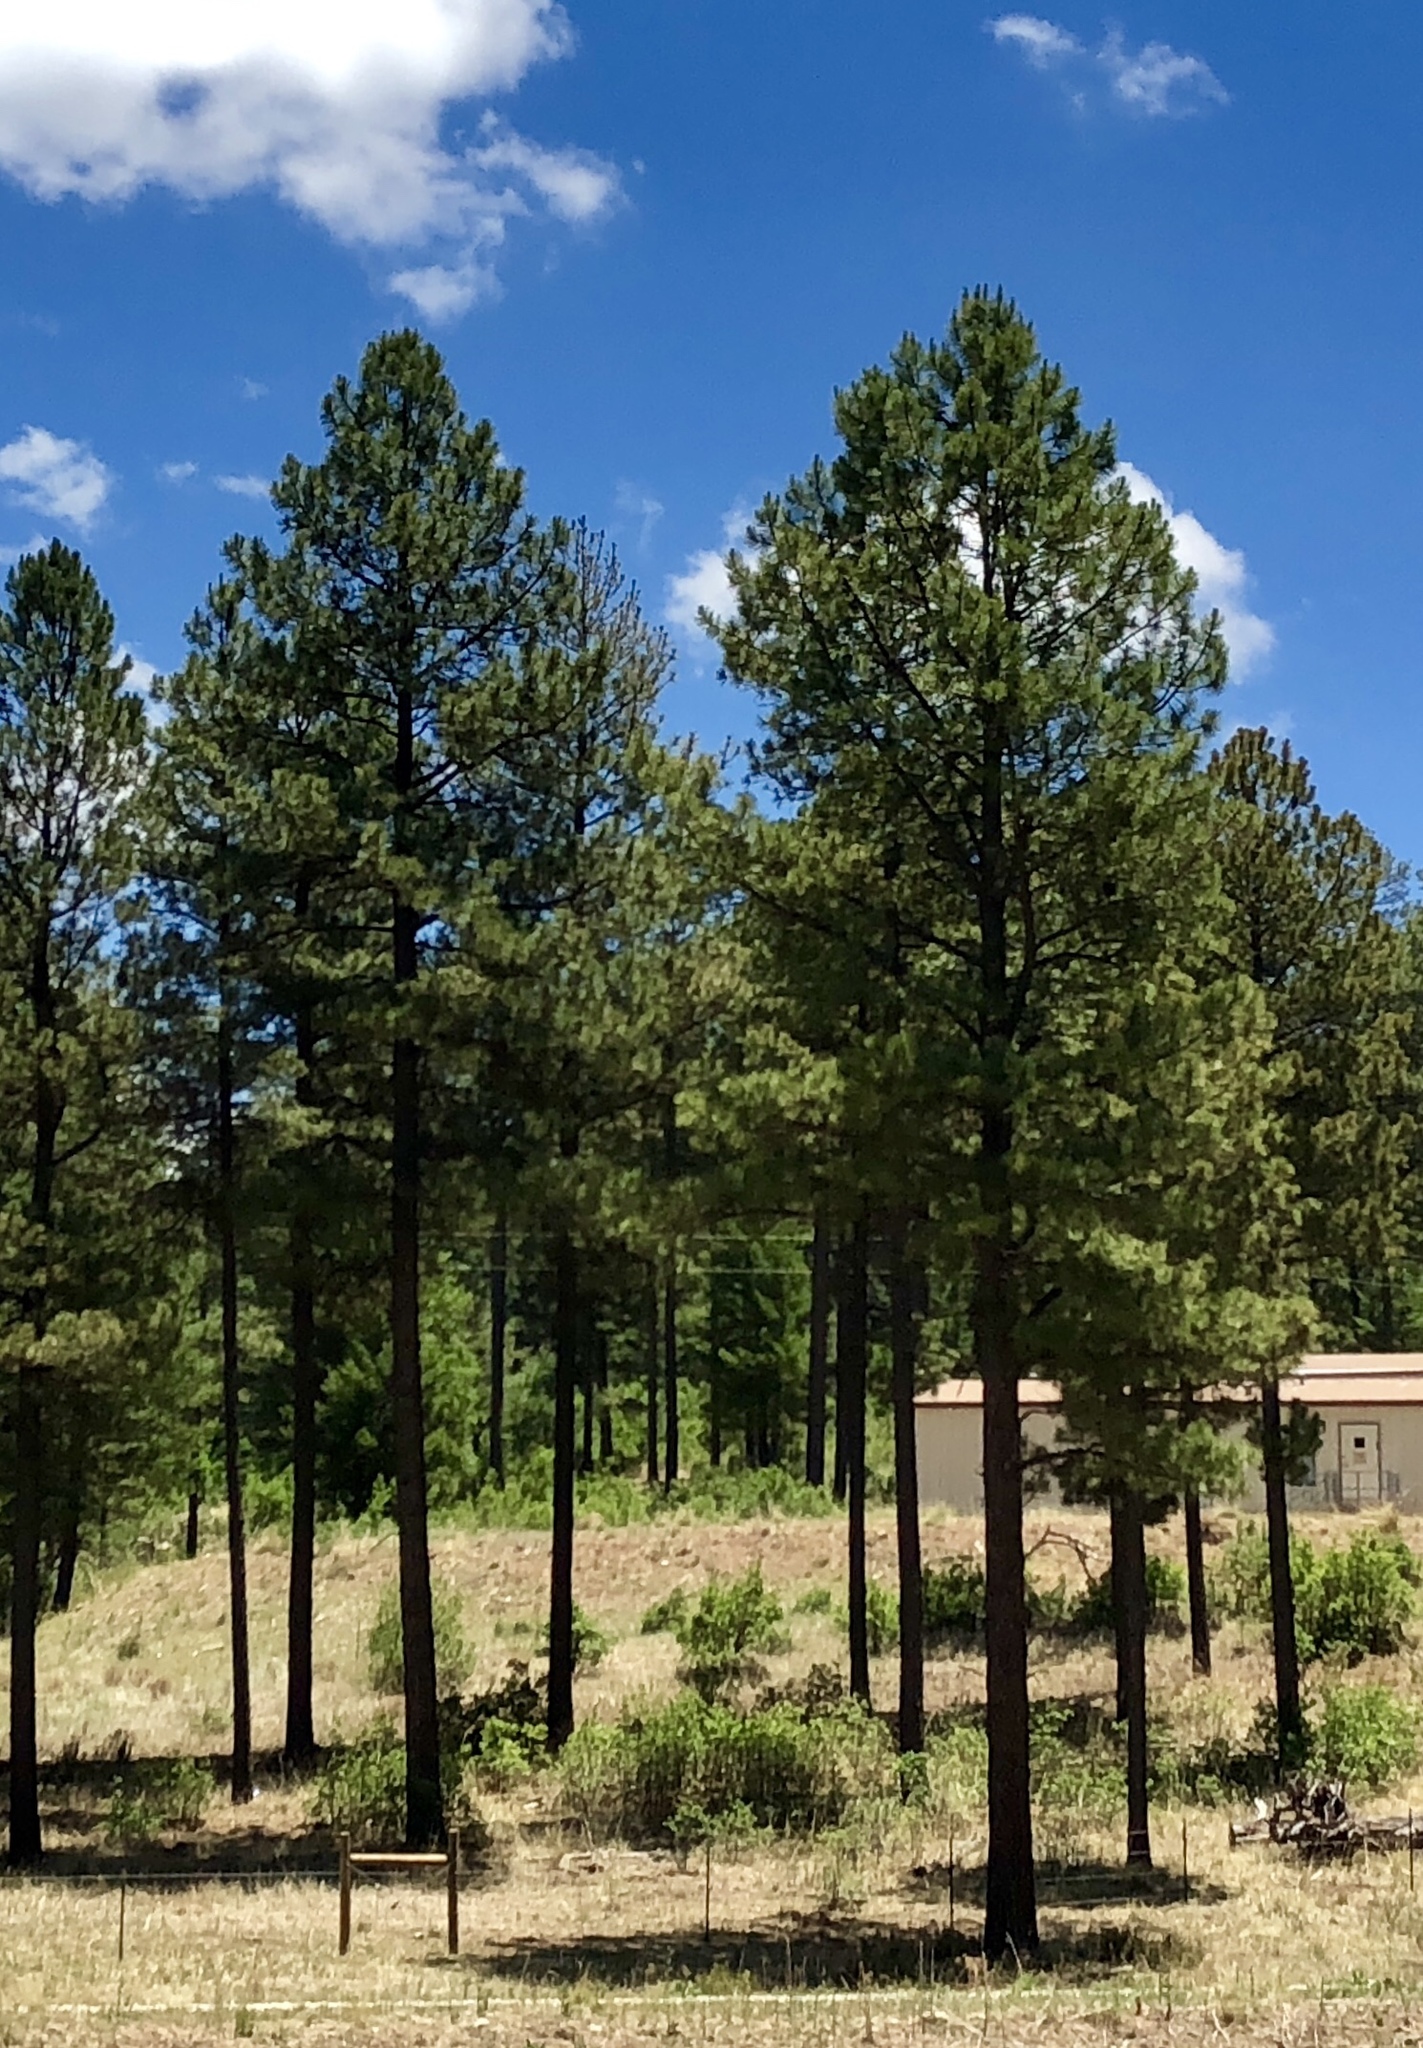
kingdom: Plantae
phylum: Tracheophyta
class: Pinopsida
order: Pinales
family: Pinaceae
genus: Pinus
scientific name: Pinus ponderosa
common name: Western yellow-pine
